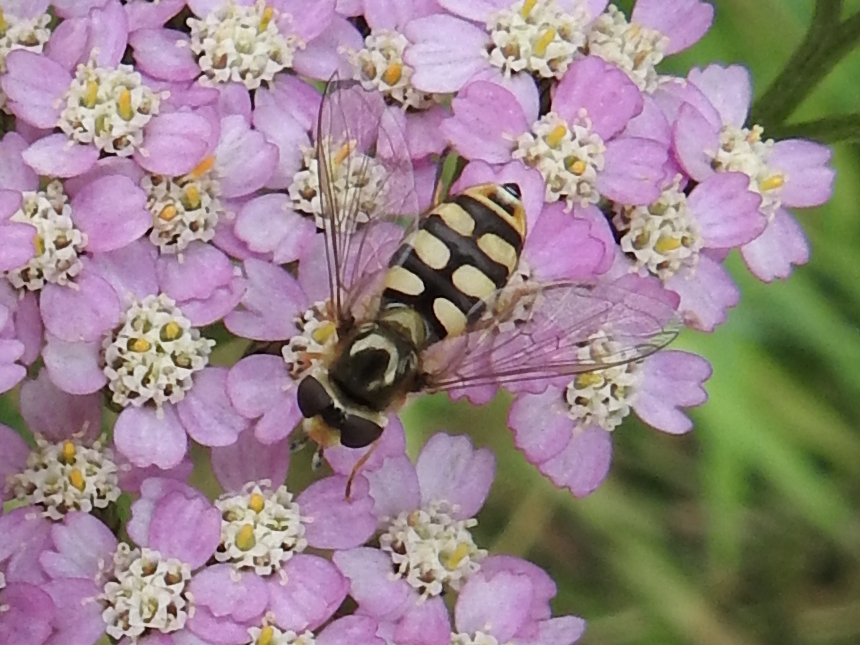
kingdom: Animalia
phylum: Arthropoda
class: Insecta
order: Diptera
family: Syrphidae
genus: Eupeodes
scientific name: Eupeodes corollae
